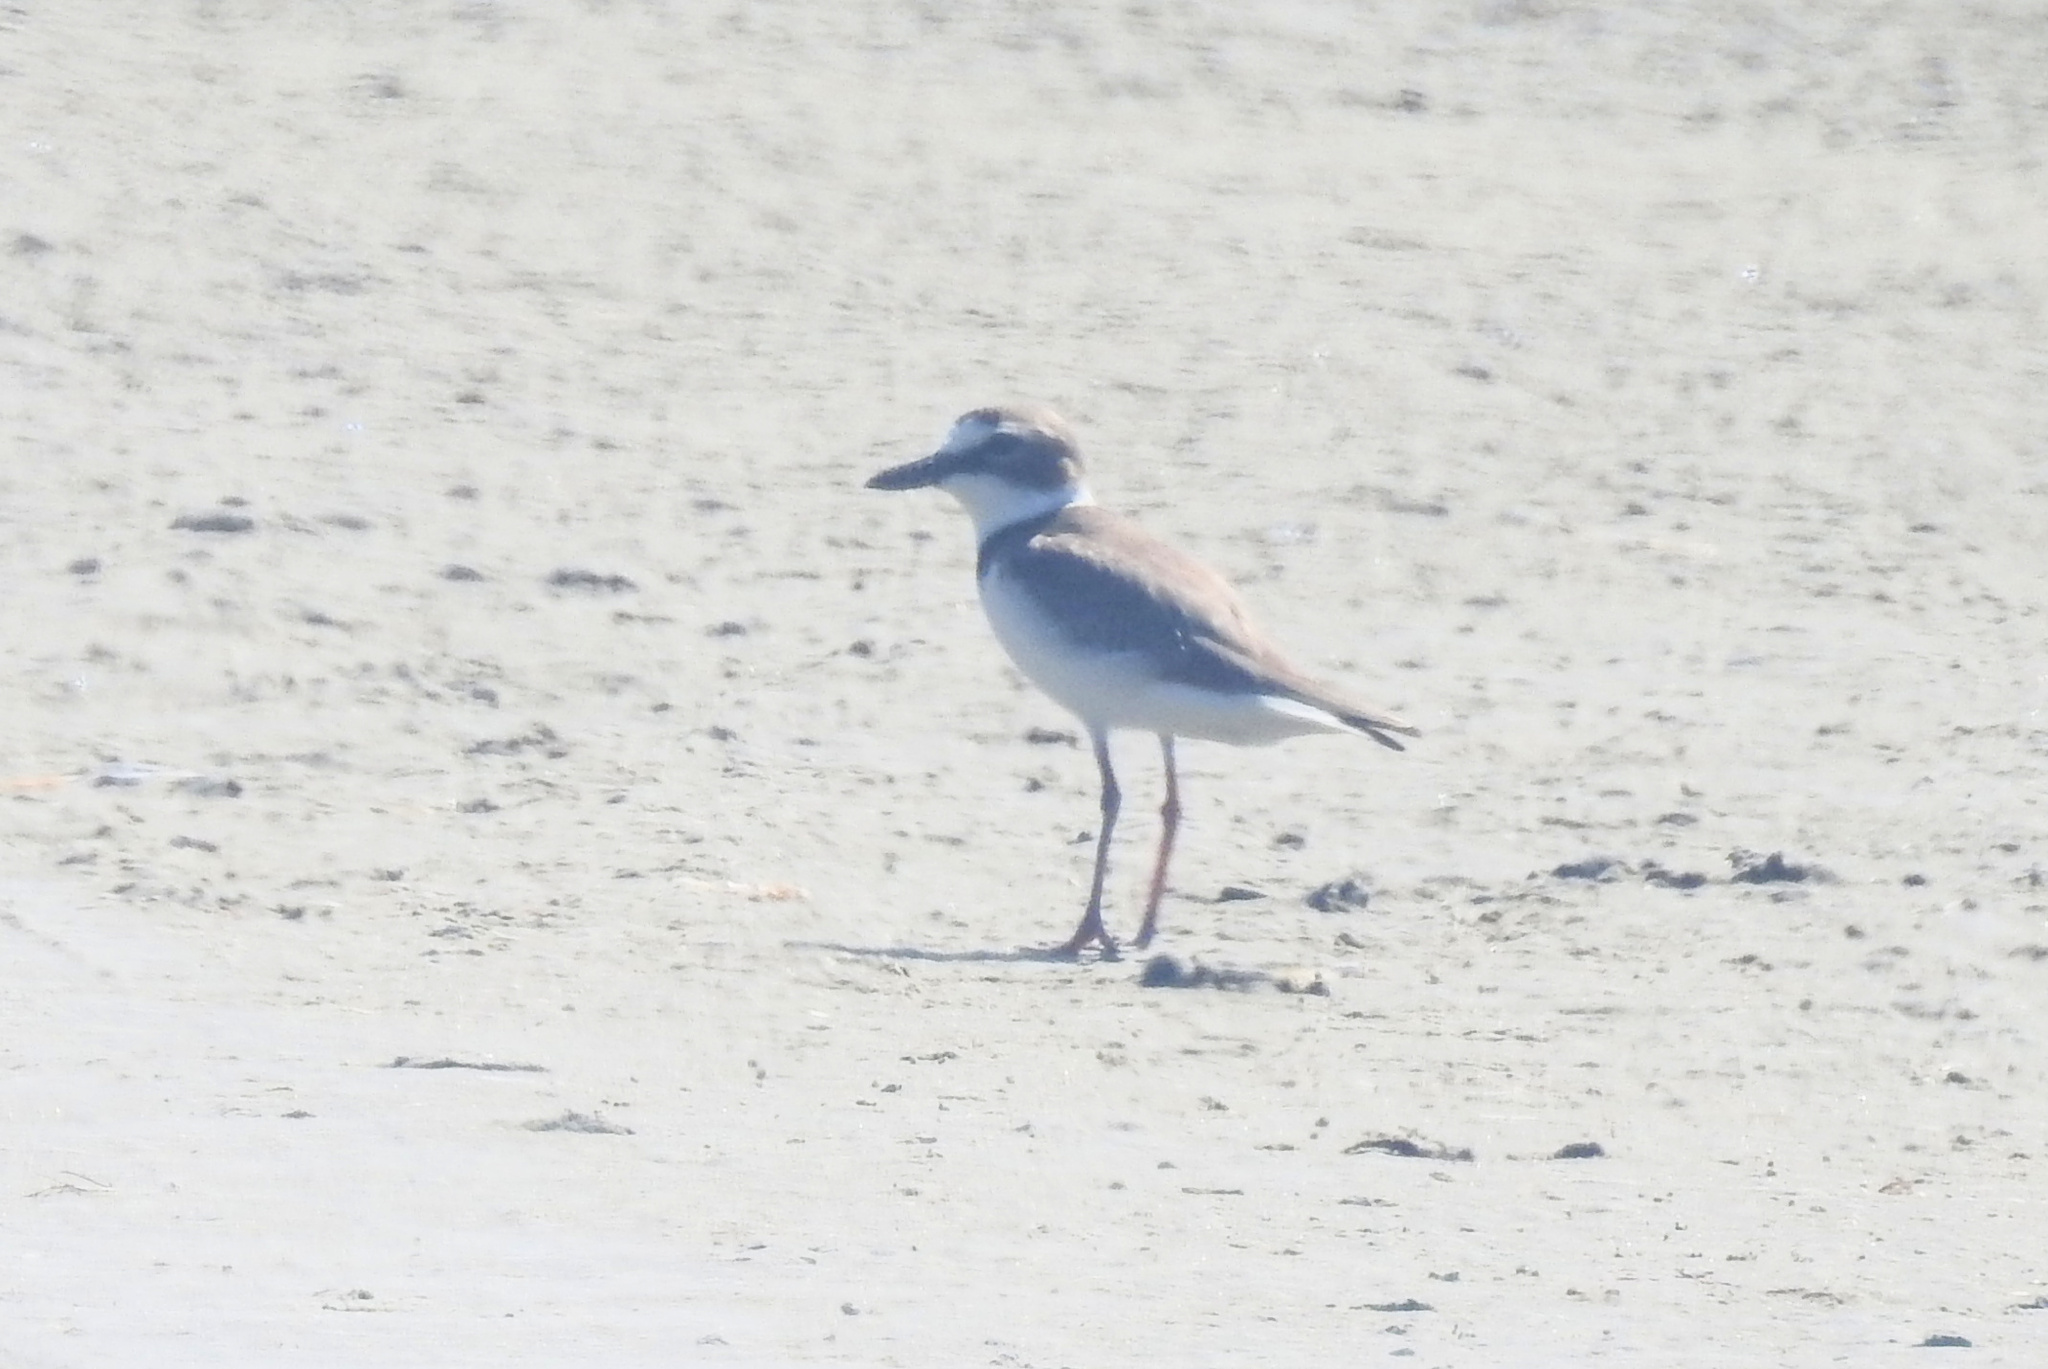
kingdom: Animalia
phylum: Chordata
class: Aves
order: Charadriiformes
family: Charadriidae
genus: Anarhynchus
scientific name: Anarhynchus
